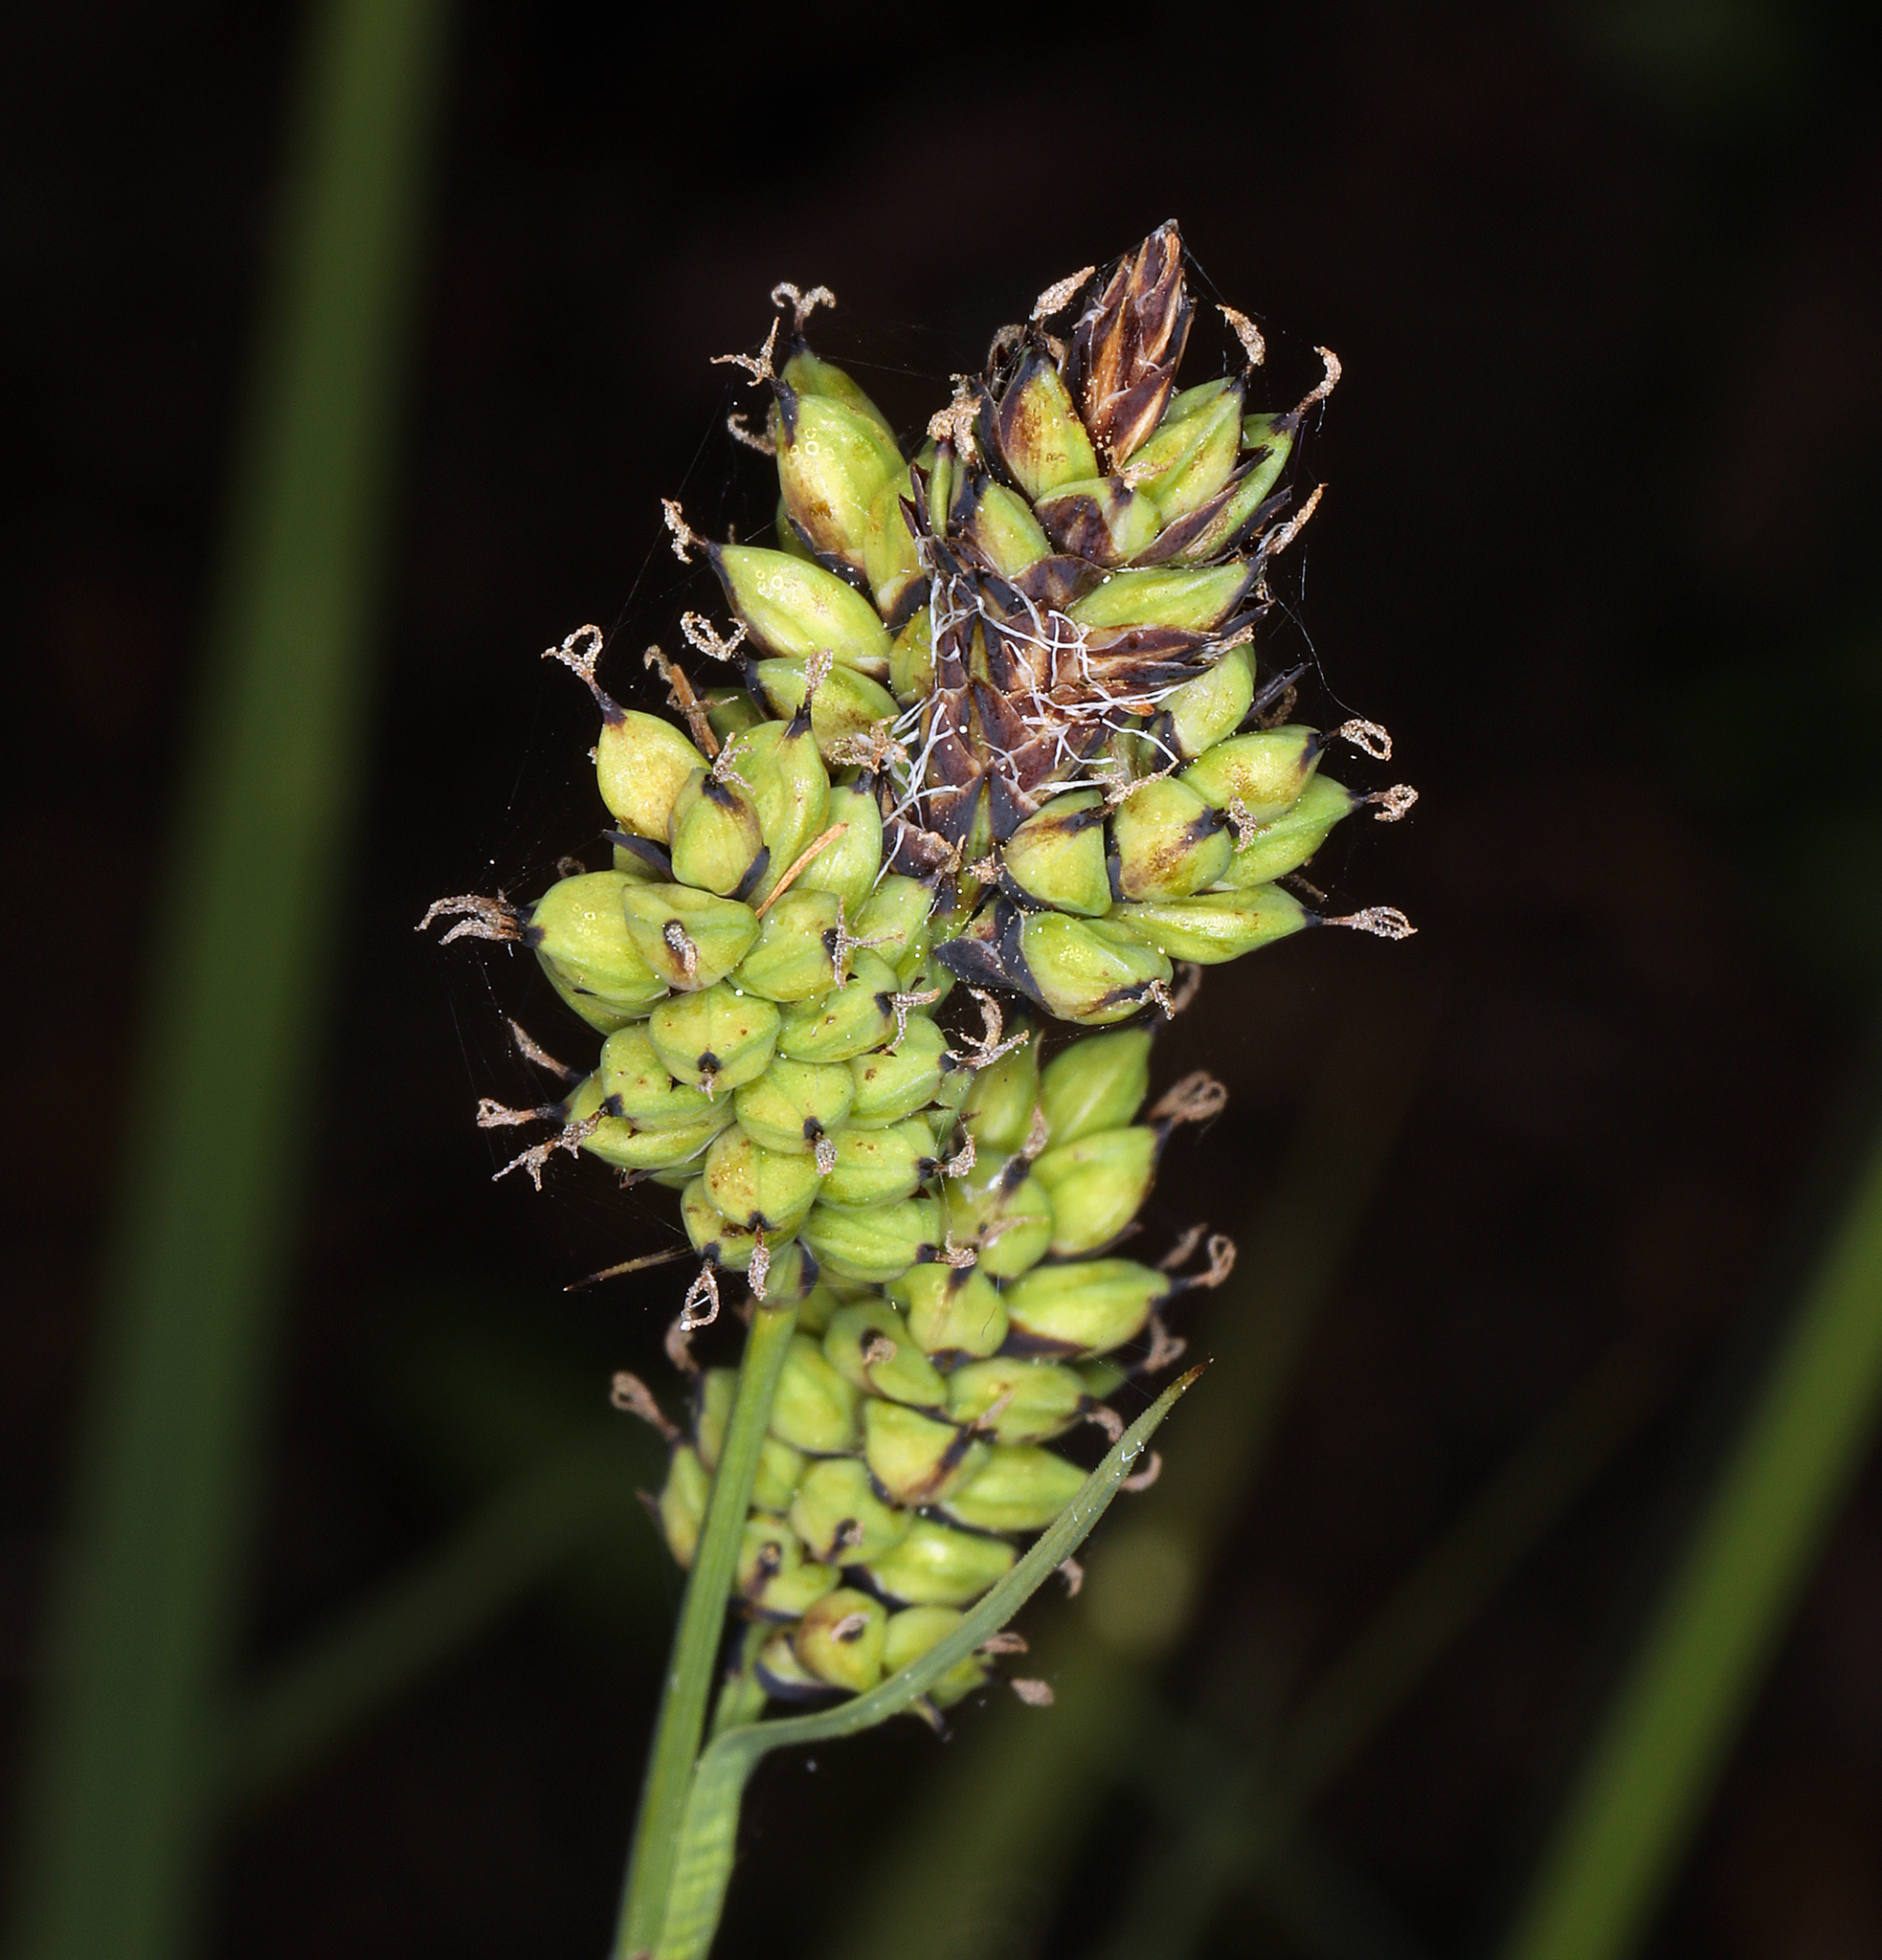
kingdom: Plantae
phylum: Tracheophyta
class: Liliopsida
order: Poales
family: Cyperaceae
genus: Carex
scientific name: Carex raynoldsii
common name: Raynolds' sedge
